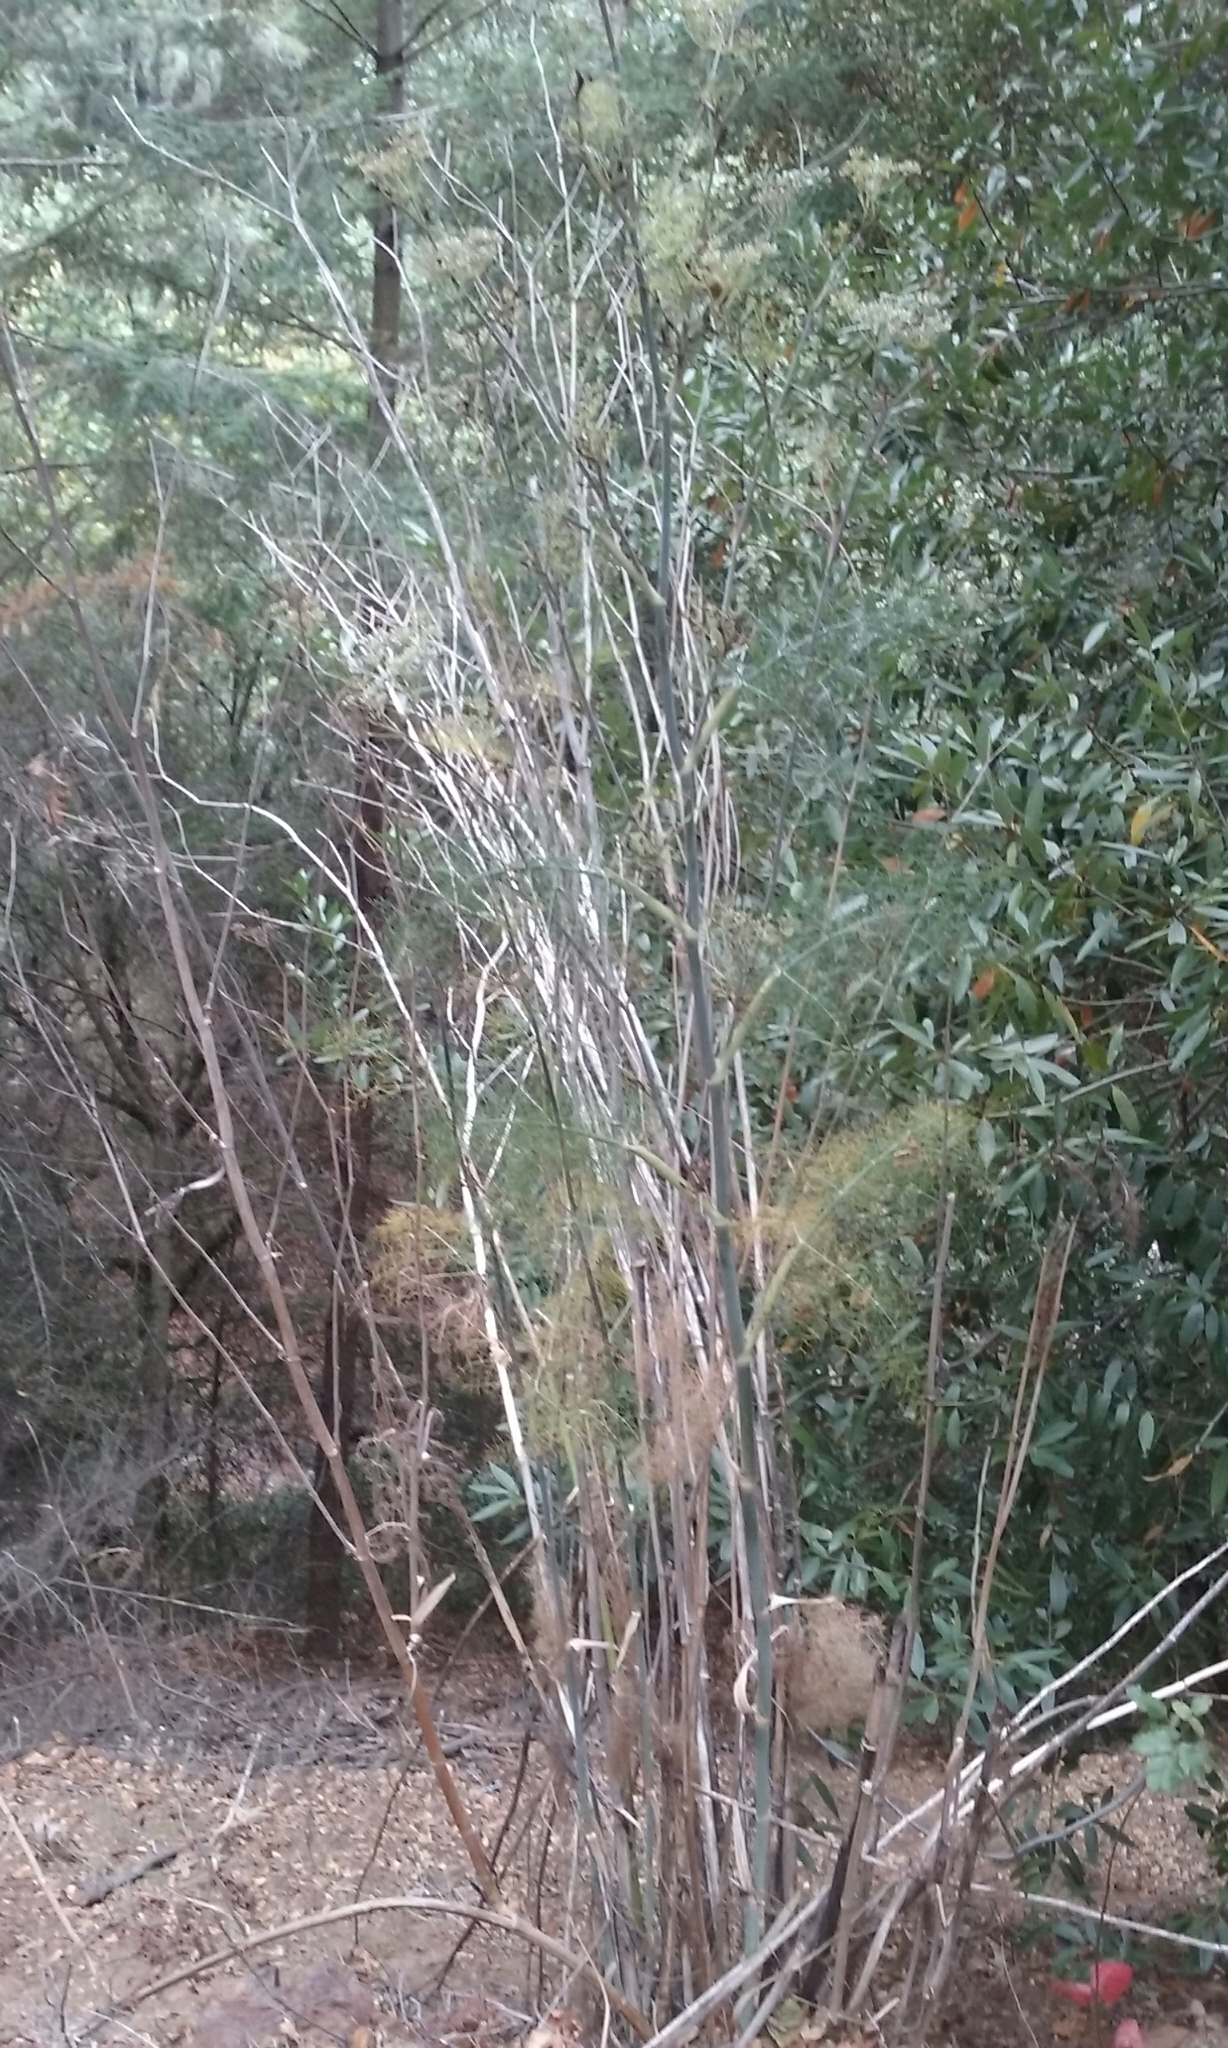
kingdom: Plantae
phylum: Tracheophyta
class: Magnoliopsida
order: Apiales
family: Apiaceae
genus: Foeniculum
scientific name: Foeniculum vulgare
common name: Fennel
